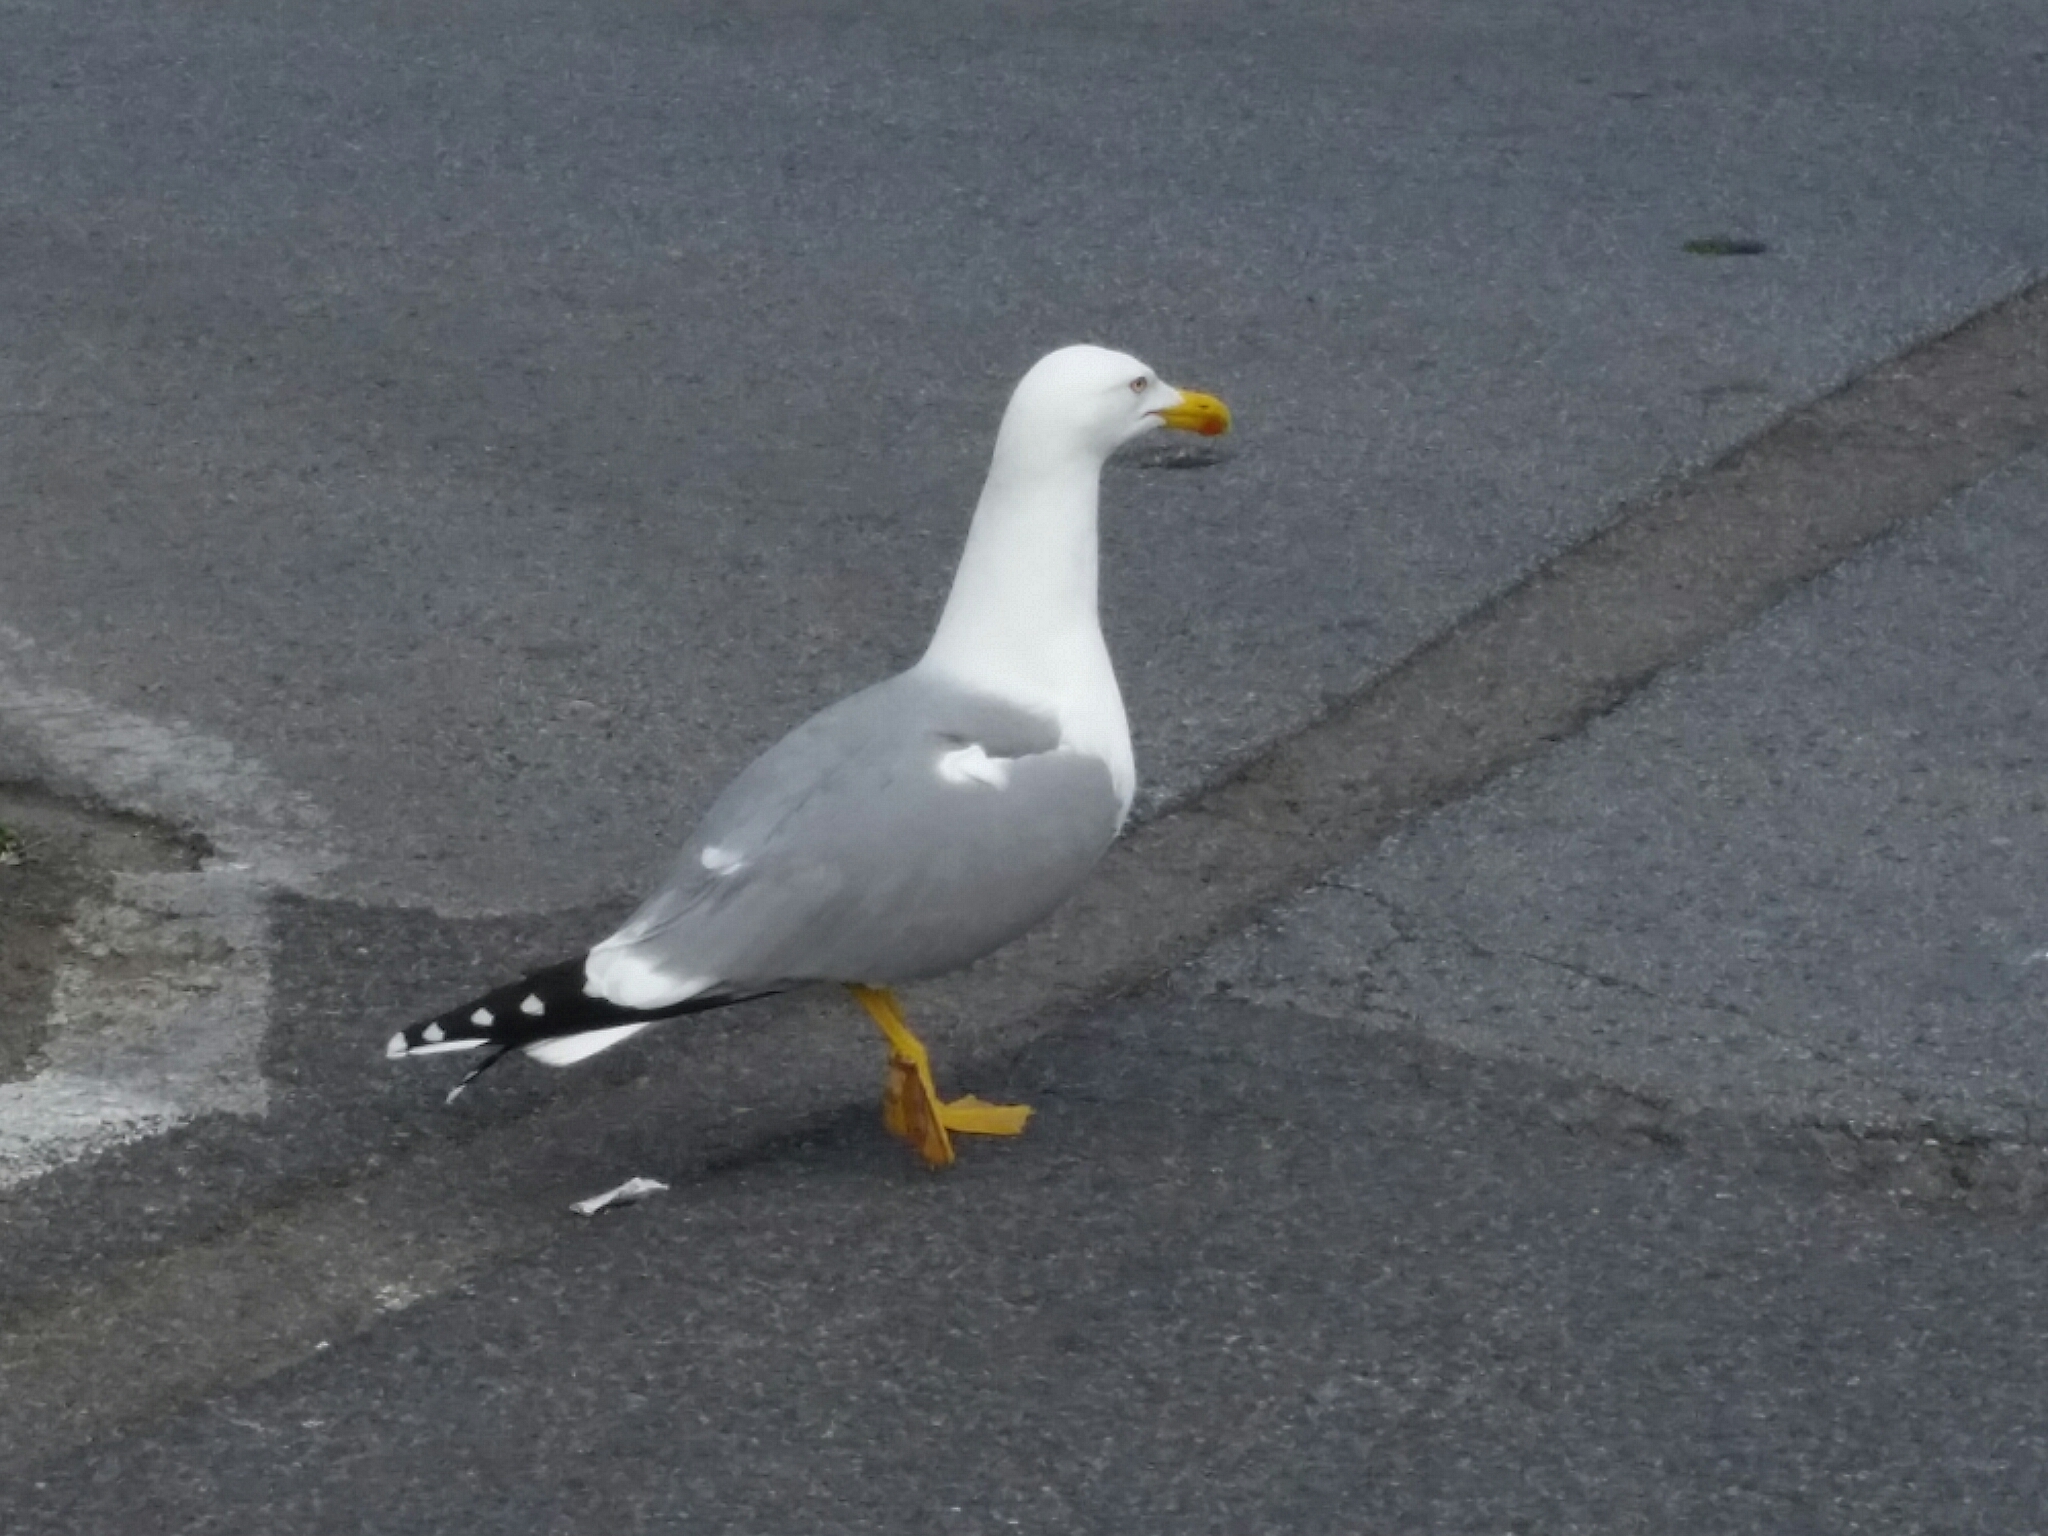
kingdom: Animalia
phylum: Chordata
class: Aves
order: Charadriiformes
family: Laridae
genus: Larus
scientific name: Larus michahellis
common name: Yellow-legged gull
